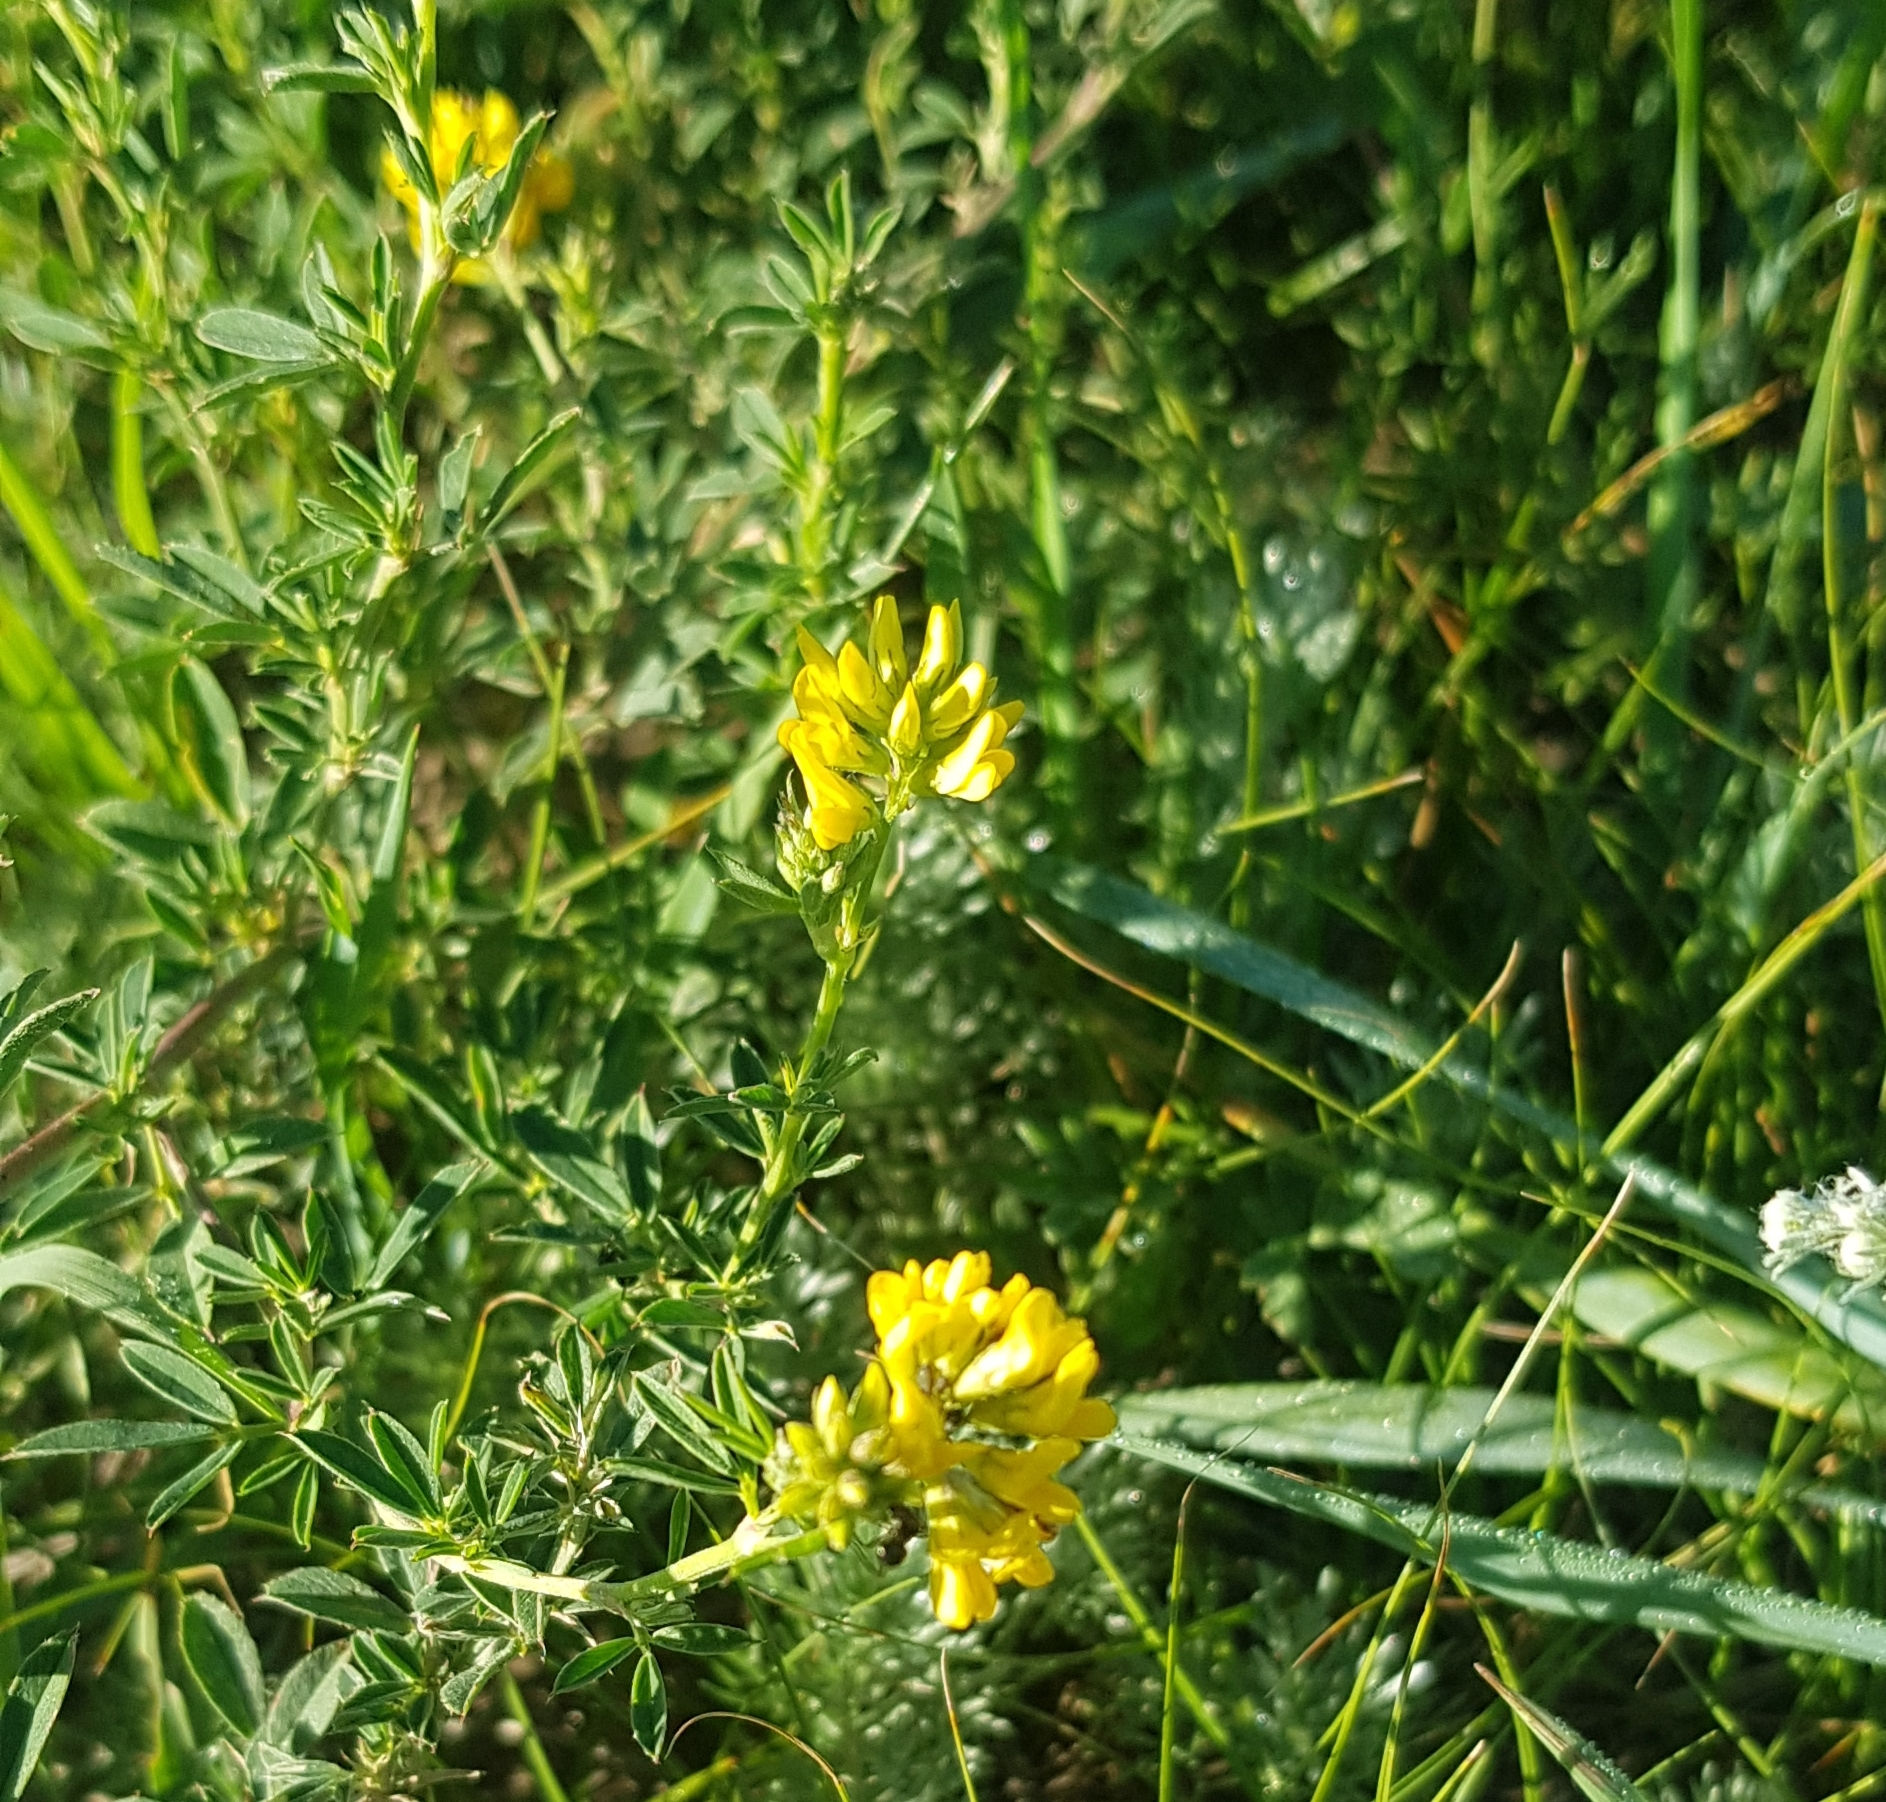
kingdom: Plantae
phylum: Tracheophyta
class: Magnoliopsida
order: Fabales
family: Fabaceae
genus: Medicago
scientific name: Medicago falcata
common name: Sickle medick
